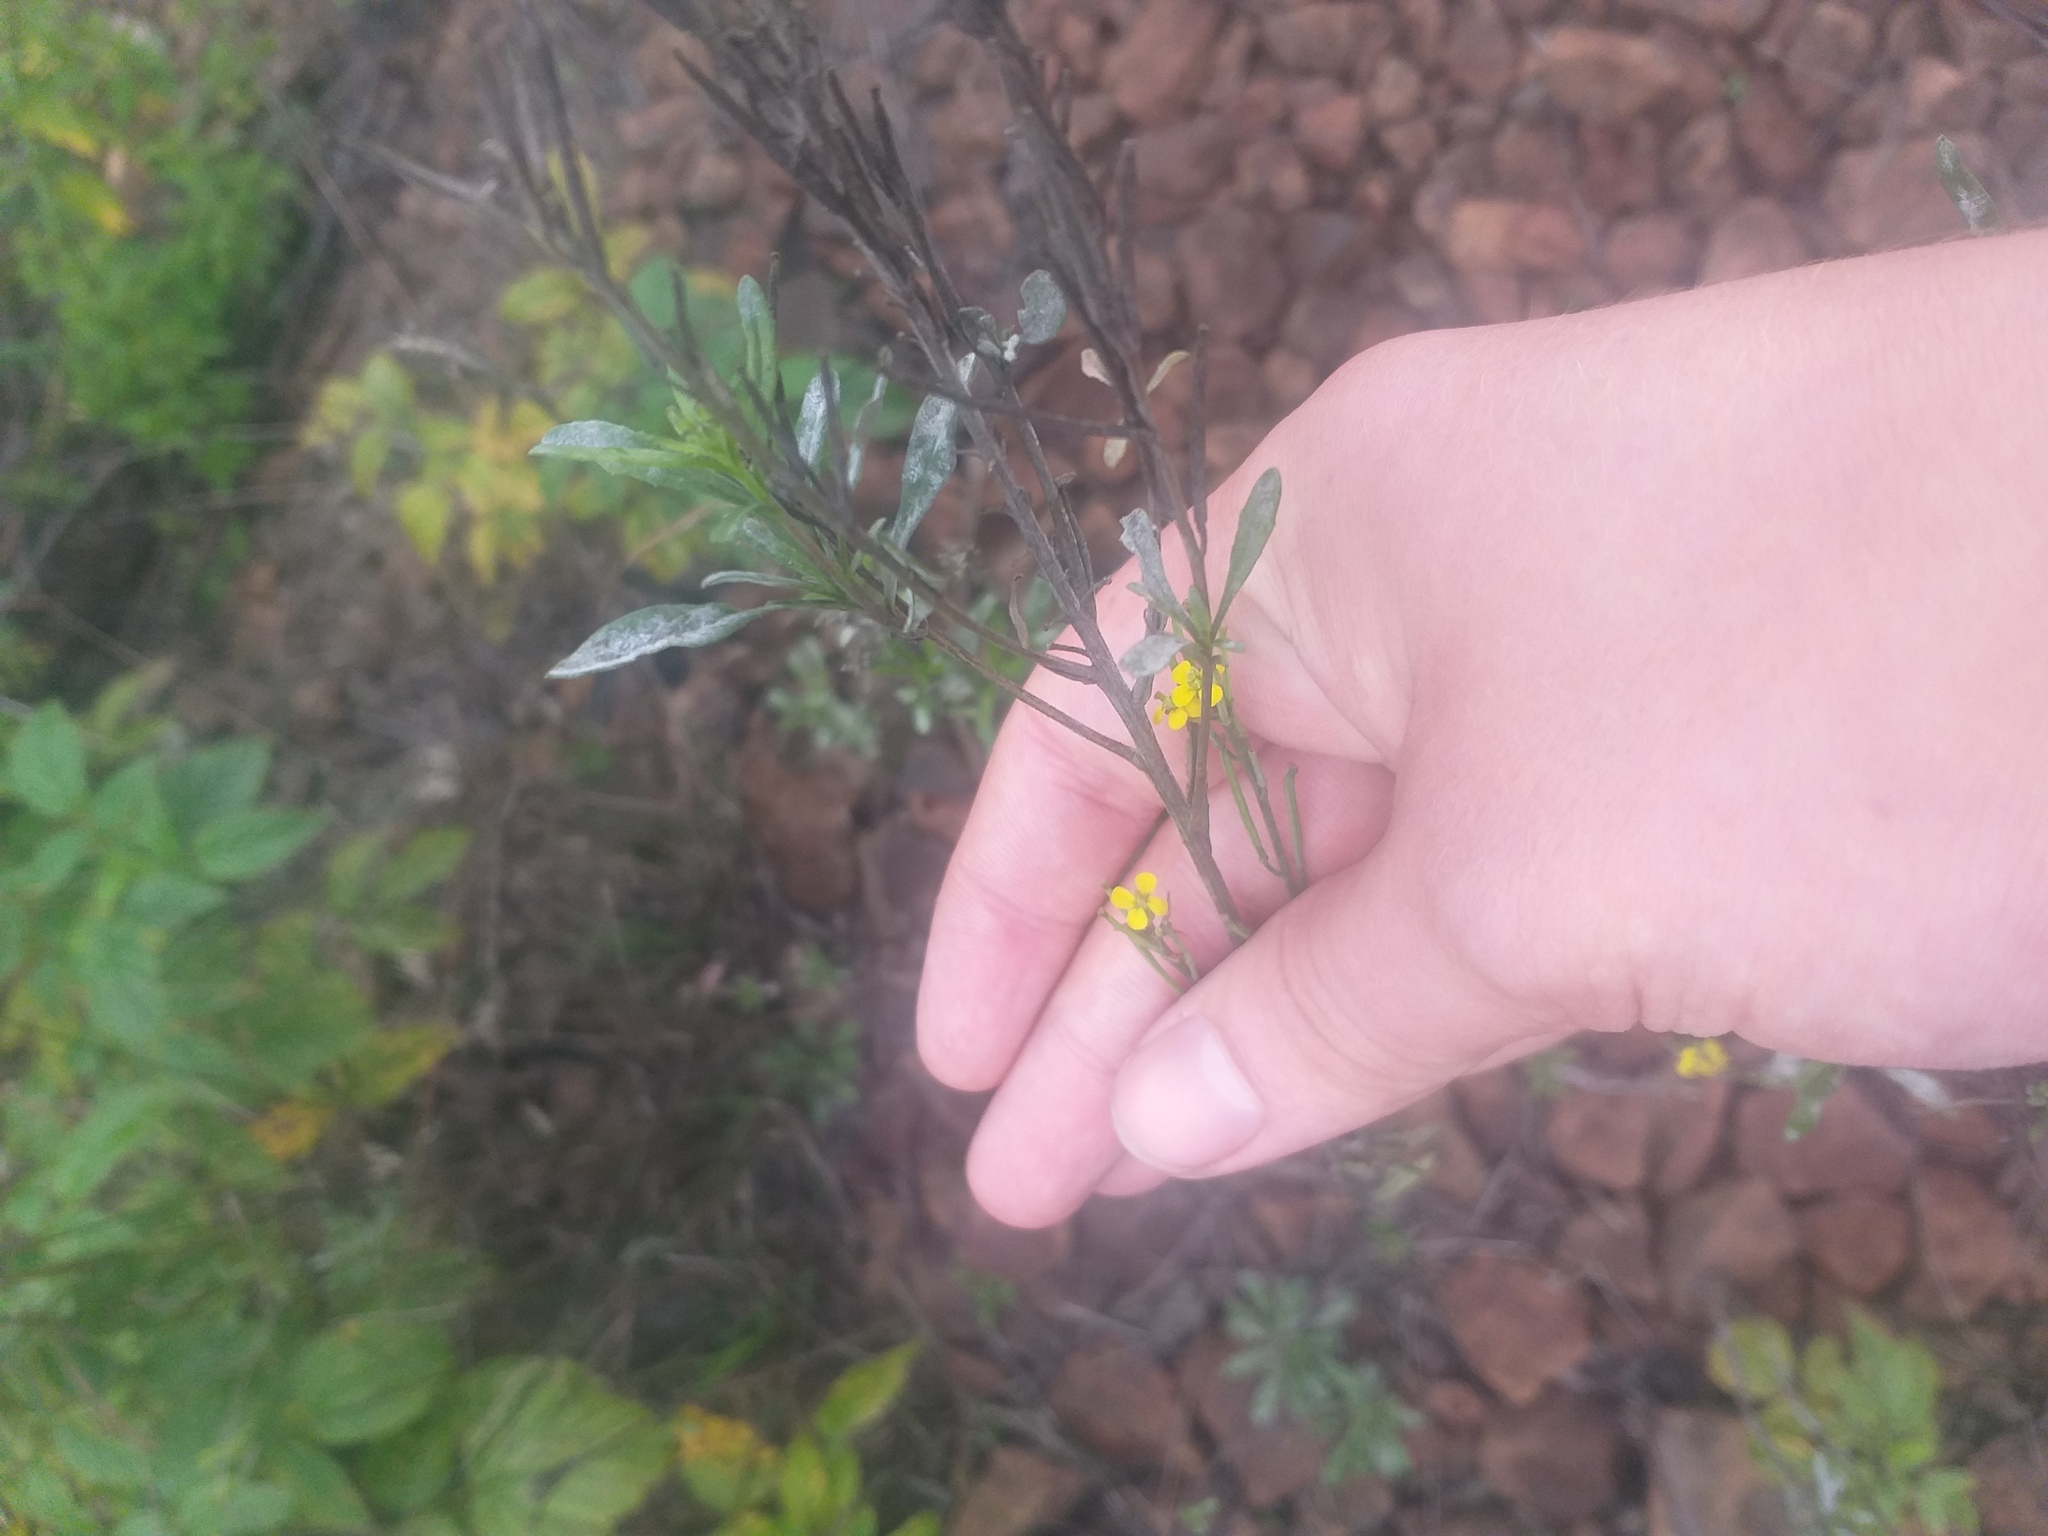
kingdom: Plantae
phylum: Tracheophyta
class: Magnoliopsida
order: Brassicales
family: Brassicaceae
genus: Erysimum
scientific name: Erysimum hieraciifolium
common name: European wallflower
